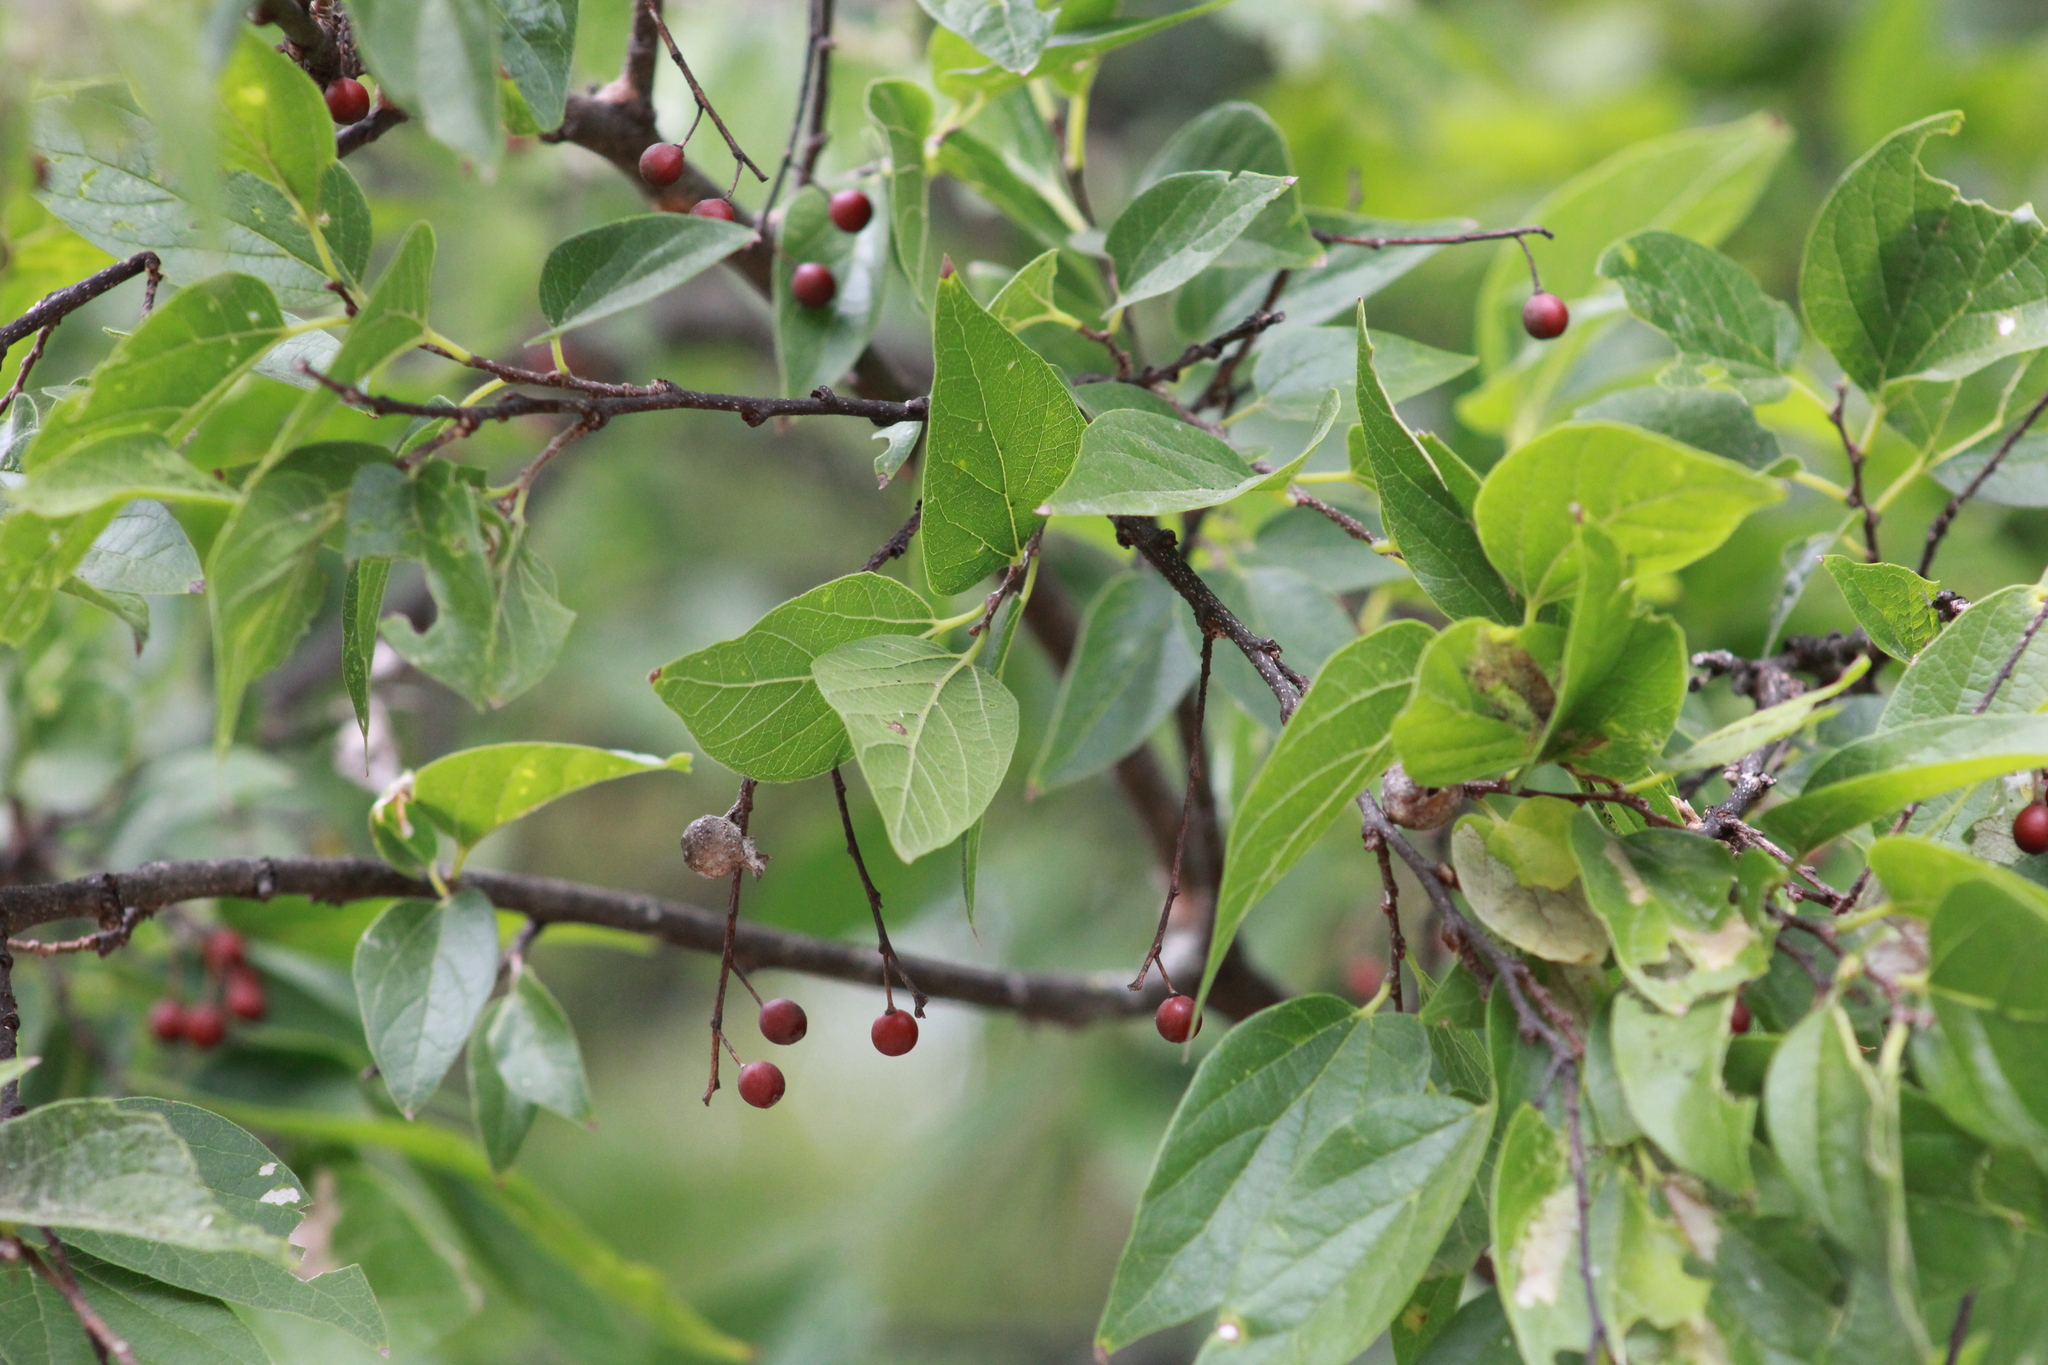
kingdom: Plantae
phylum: Tracheophyta
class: Magnoliopsida
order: Rosales
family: Cannabaceae
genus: Celtis
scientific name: Celtis laevigata
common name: Sugarberry
